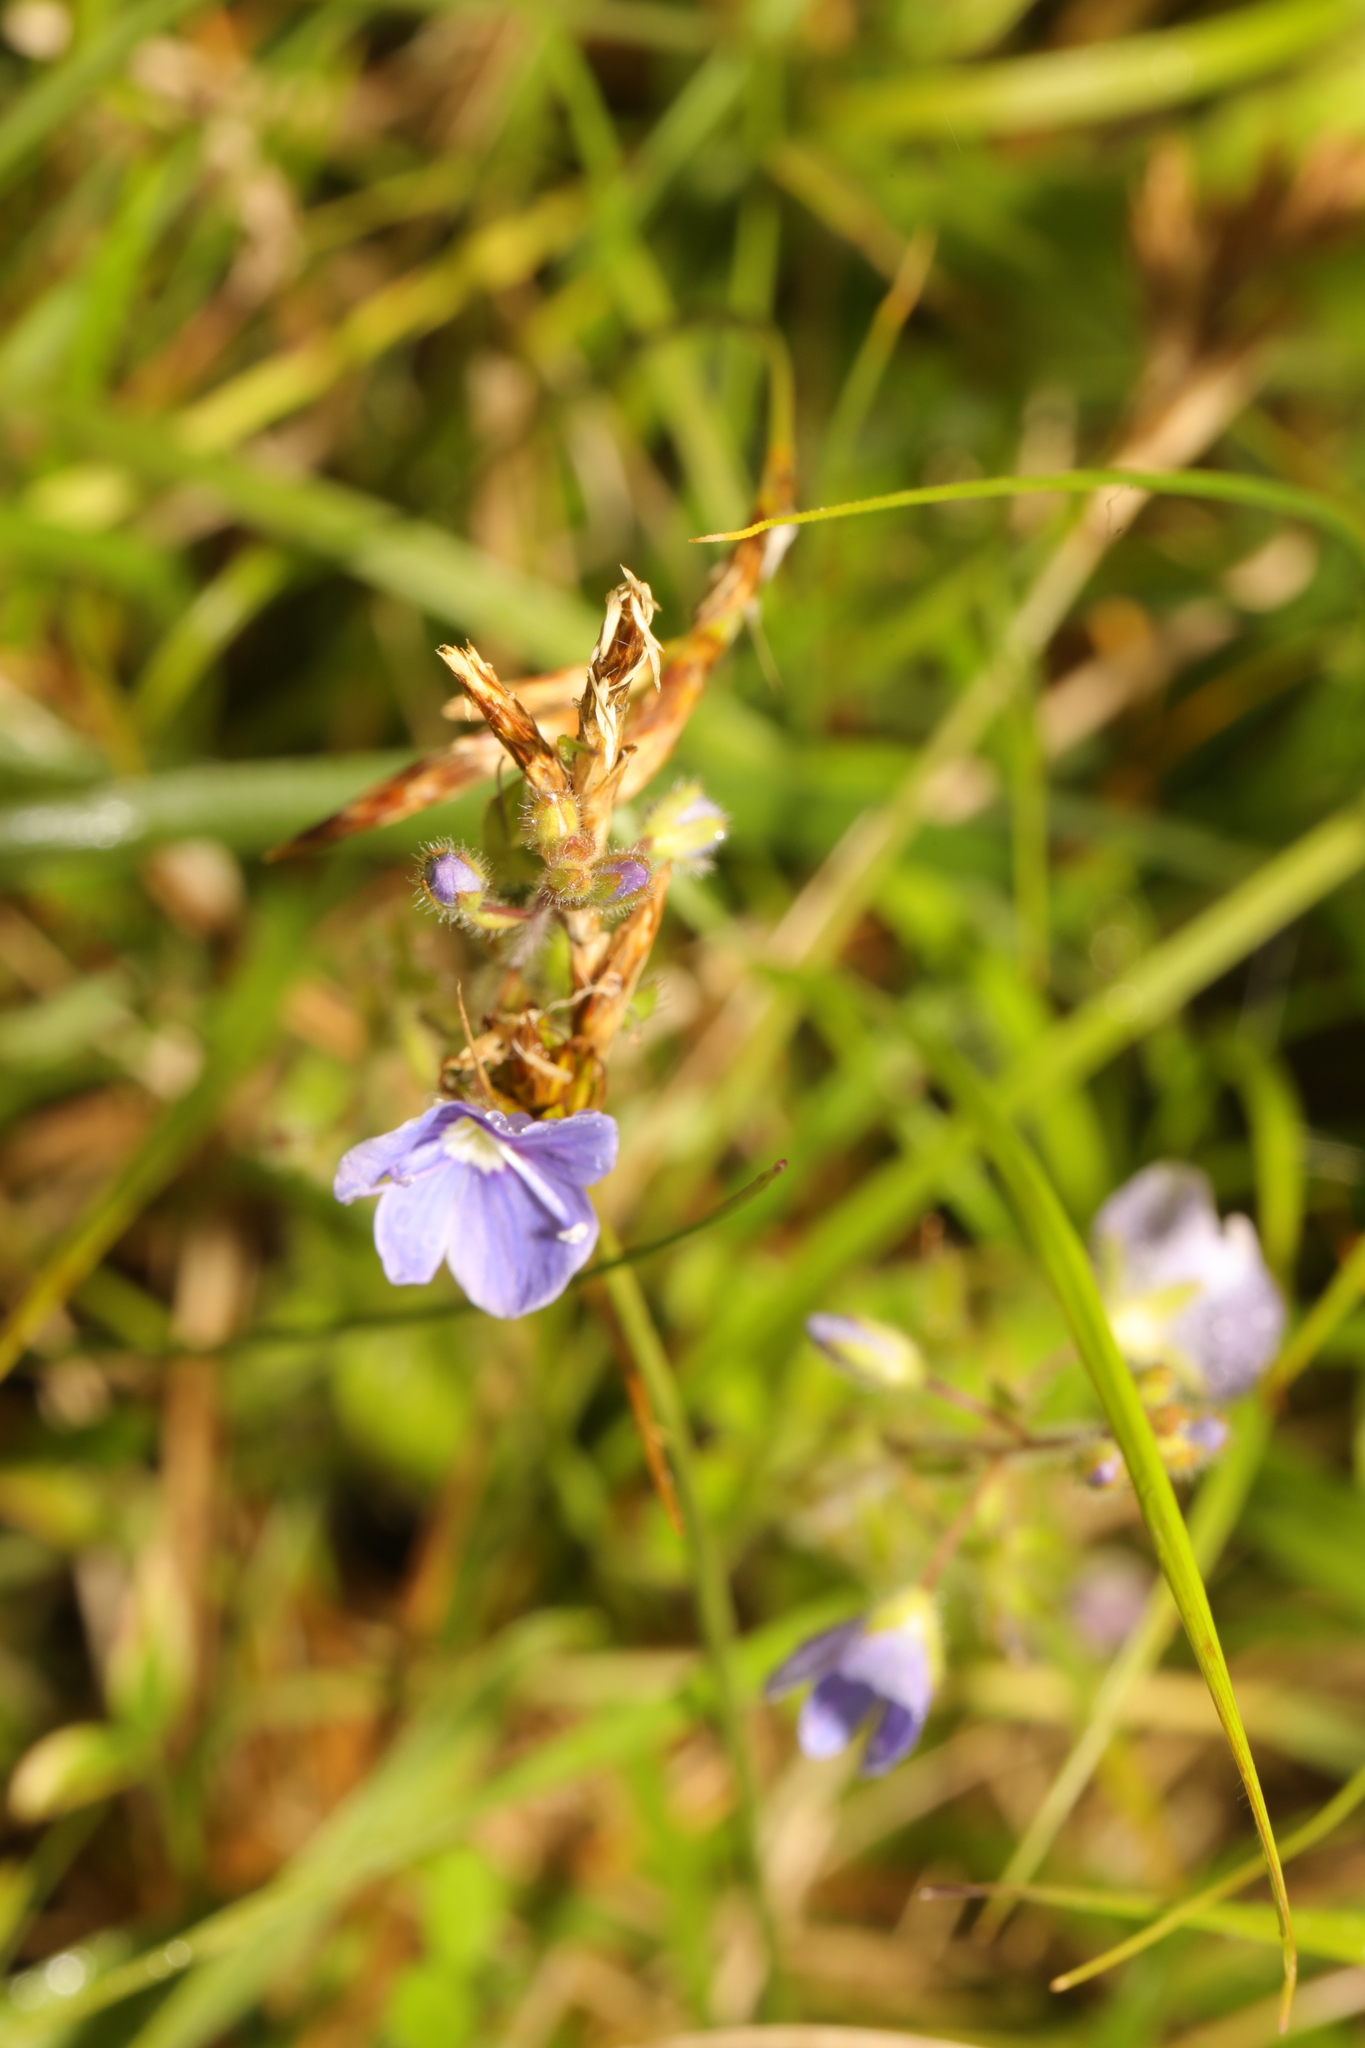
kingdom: Plantae
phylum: Tracheophyta
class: Magnoliopsida
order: Lamiales
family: Plantaginaceae
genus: Veronica
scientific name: Veronica chamaedrys
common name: Germander speedwell
